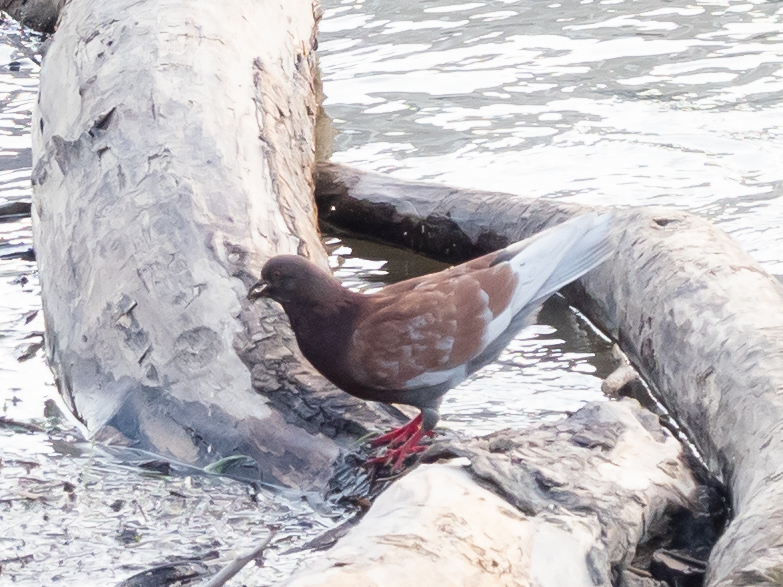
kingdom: Animalia
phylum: Chordata
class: Aves
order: Columbiformes
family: Columbidae
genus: Columba
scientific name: Columba livia
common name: Rock pigeon
